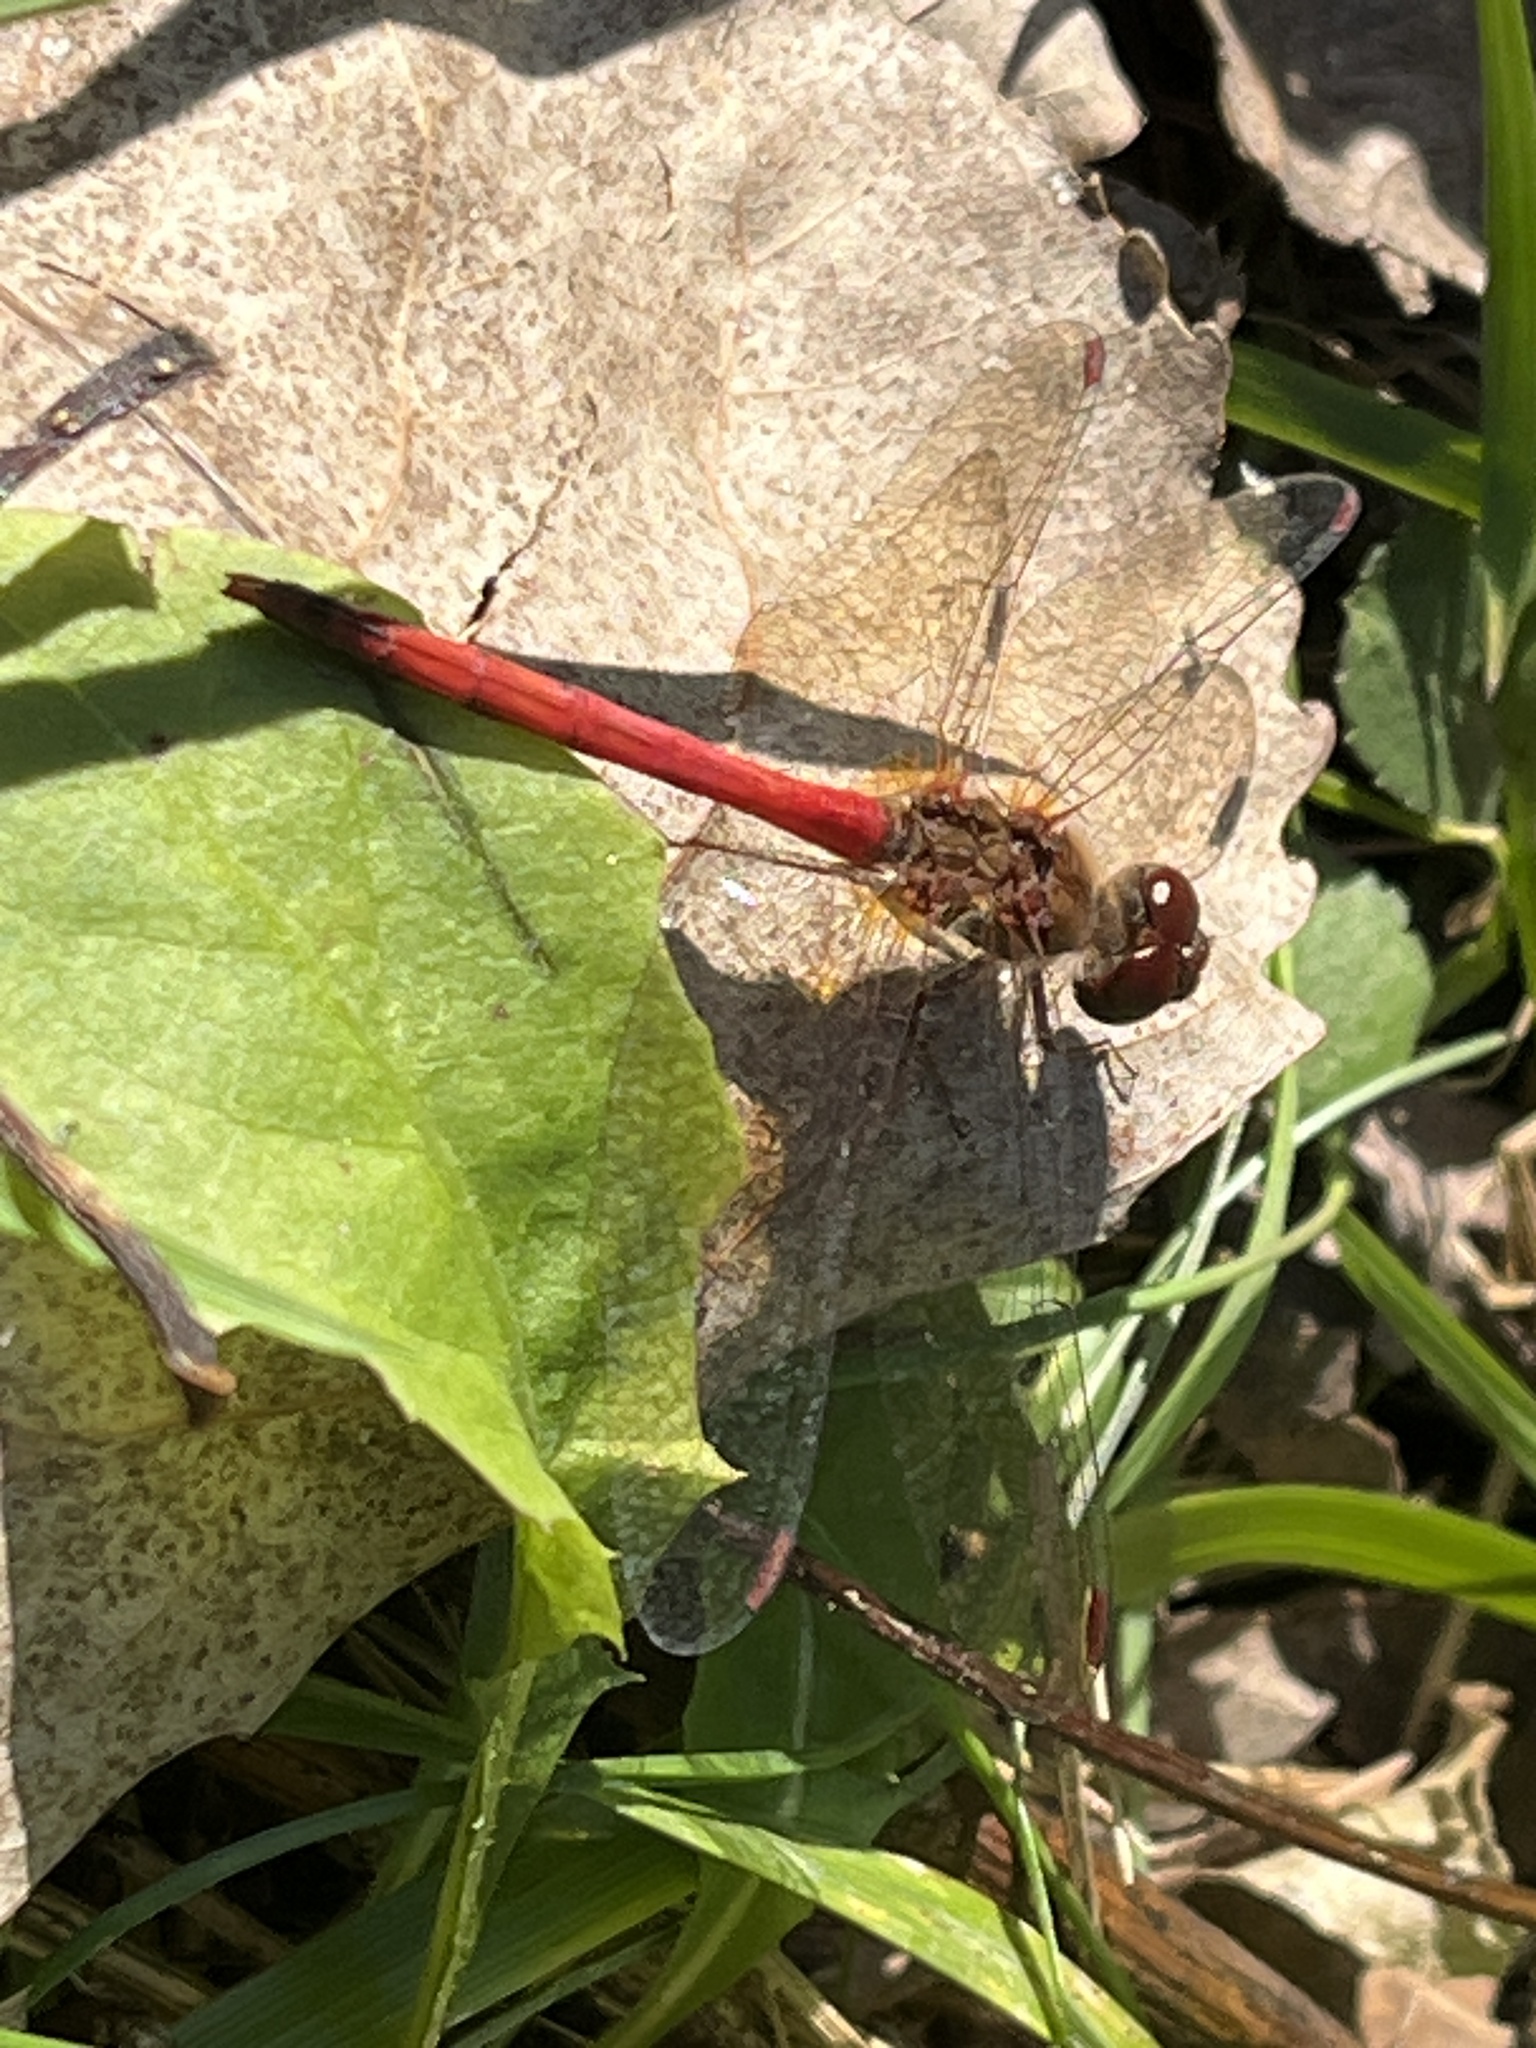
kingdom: Animalia
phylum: Arthropoda
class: Insecta
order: Odonata
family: Libellulidae
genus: Sympetrum
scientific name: Sympetrum vicinum
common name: Autumn meadowhawk
